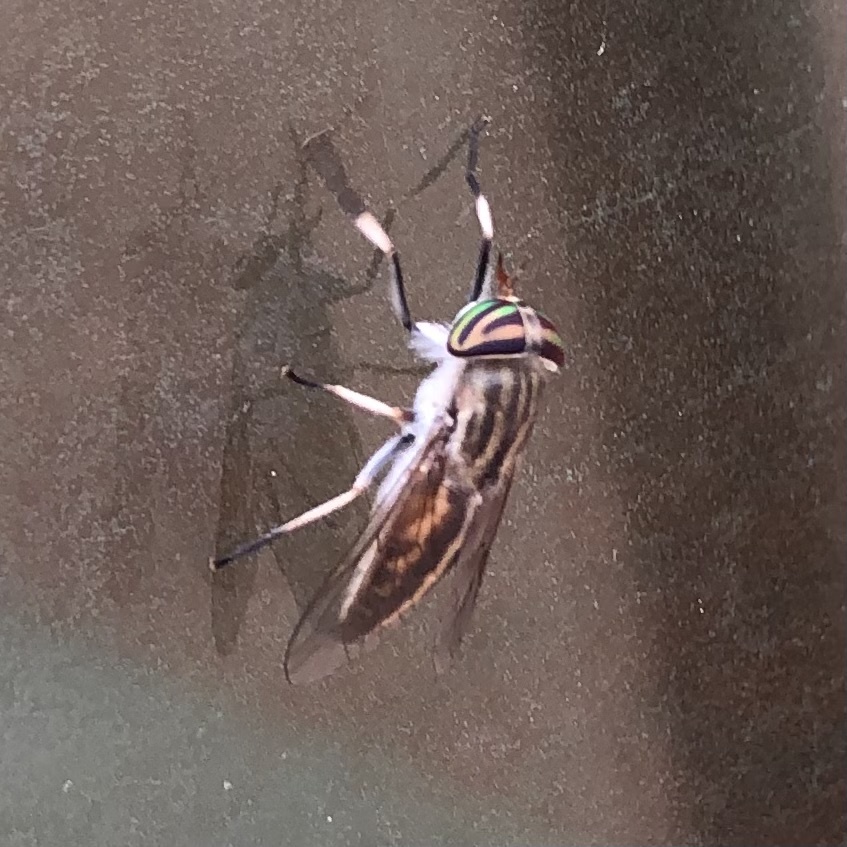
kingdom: Animalia
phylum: Arthropoda
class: Insecta
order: Diptera
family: Tabanidae
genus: Tabanus
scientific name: Tabanus lineola
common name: Striped horse fly
